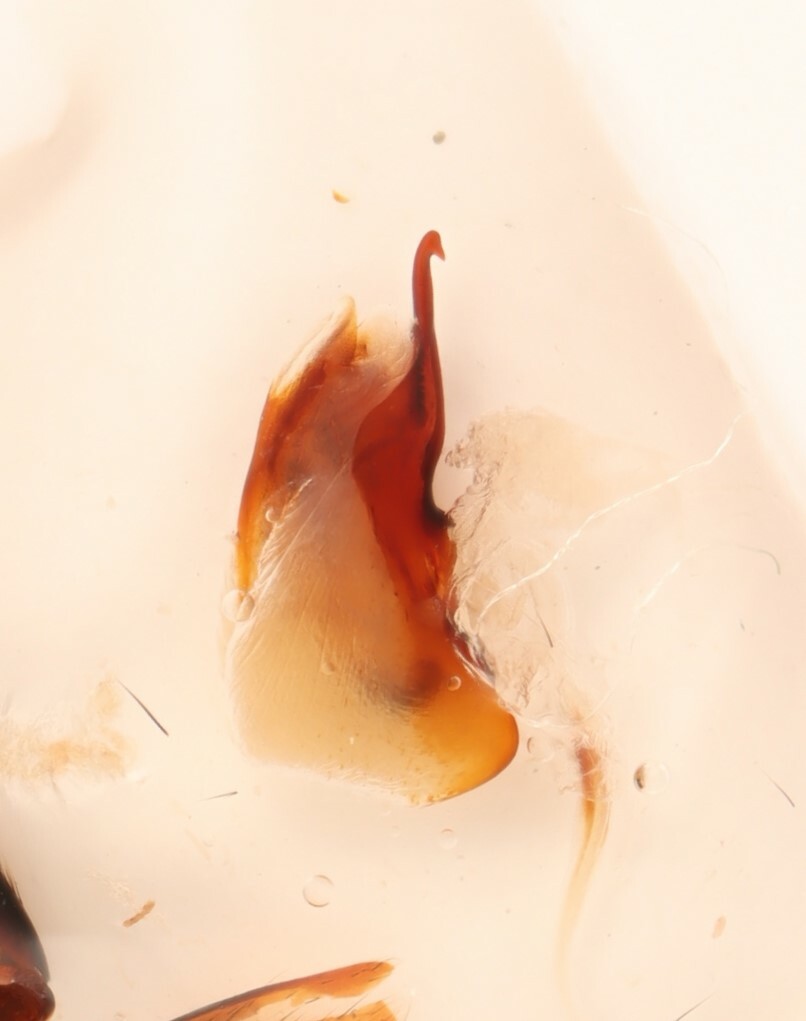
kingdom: Animalia
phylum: Arthropoda
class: Insecta
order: Coleoptera
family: Staphylinidae
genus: Lathrobium
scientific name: Lathrobium sparsellum
